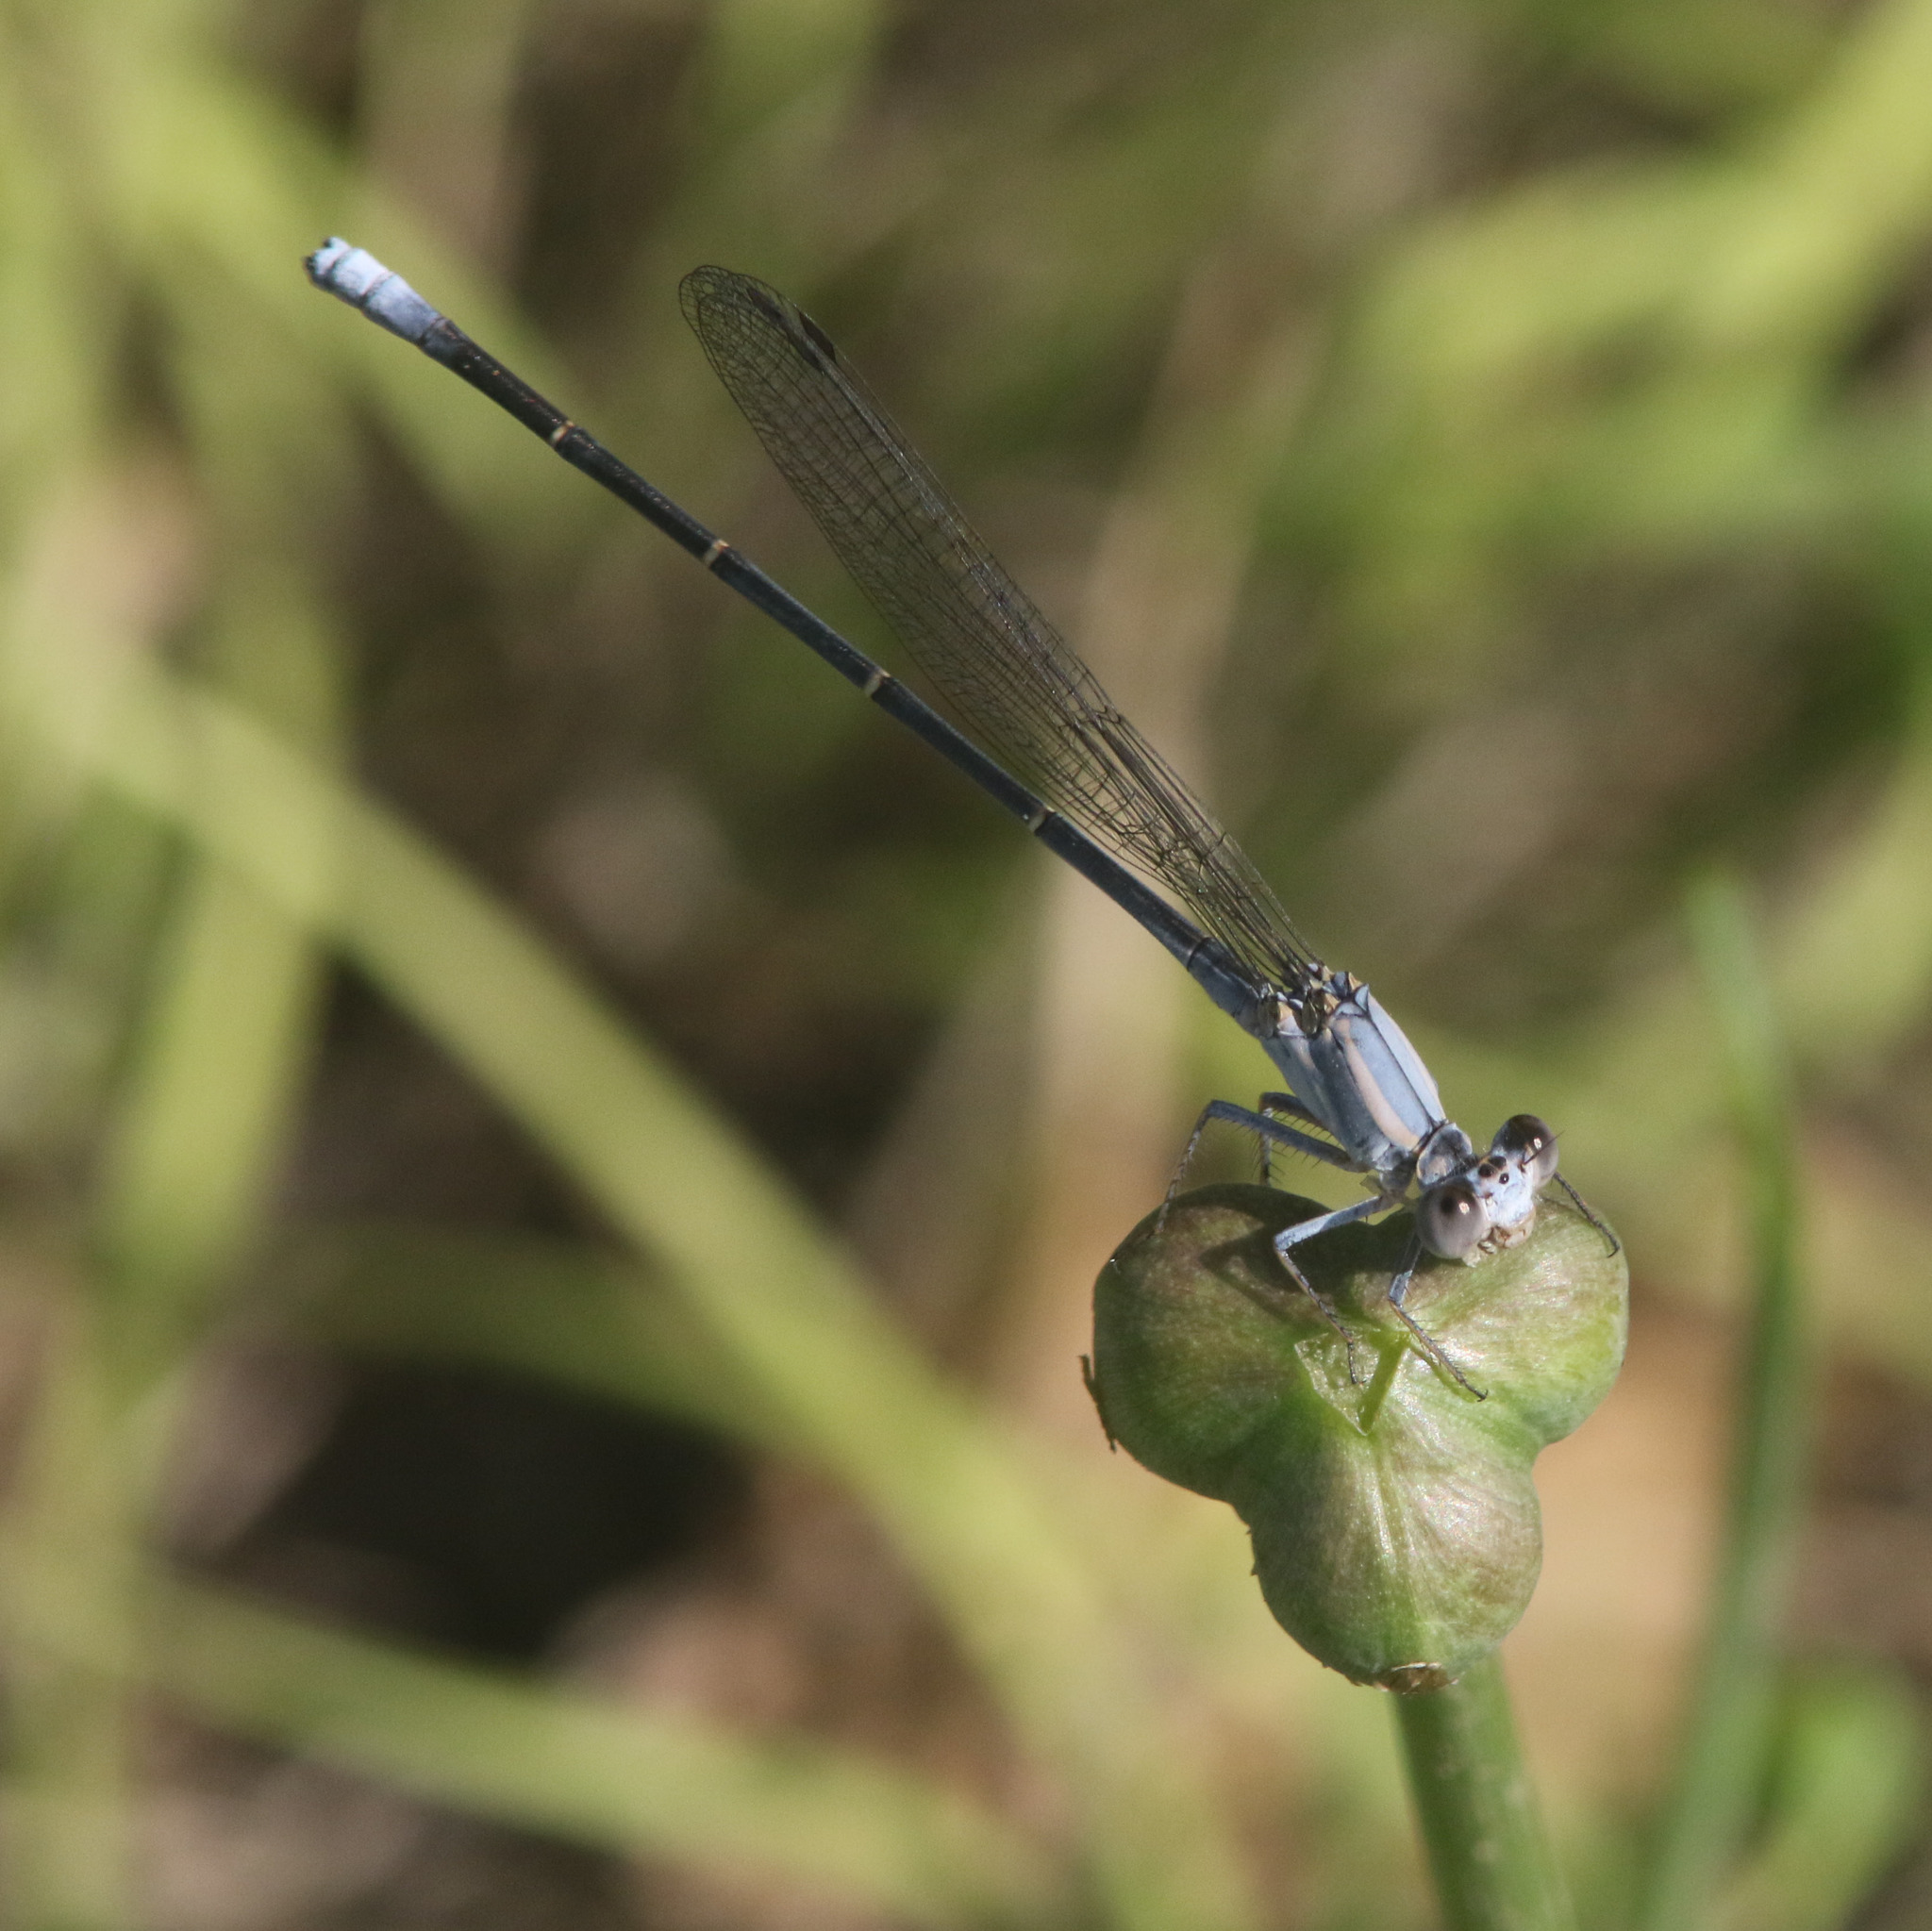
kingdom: Animalia
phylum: Arthropoda
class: Insecta
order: Odonata
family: Coenagrionidae
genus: Argia
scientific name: Argia moesta
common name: Powdered dancer
